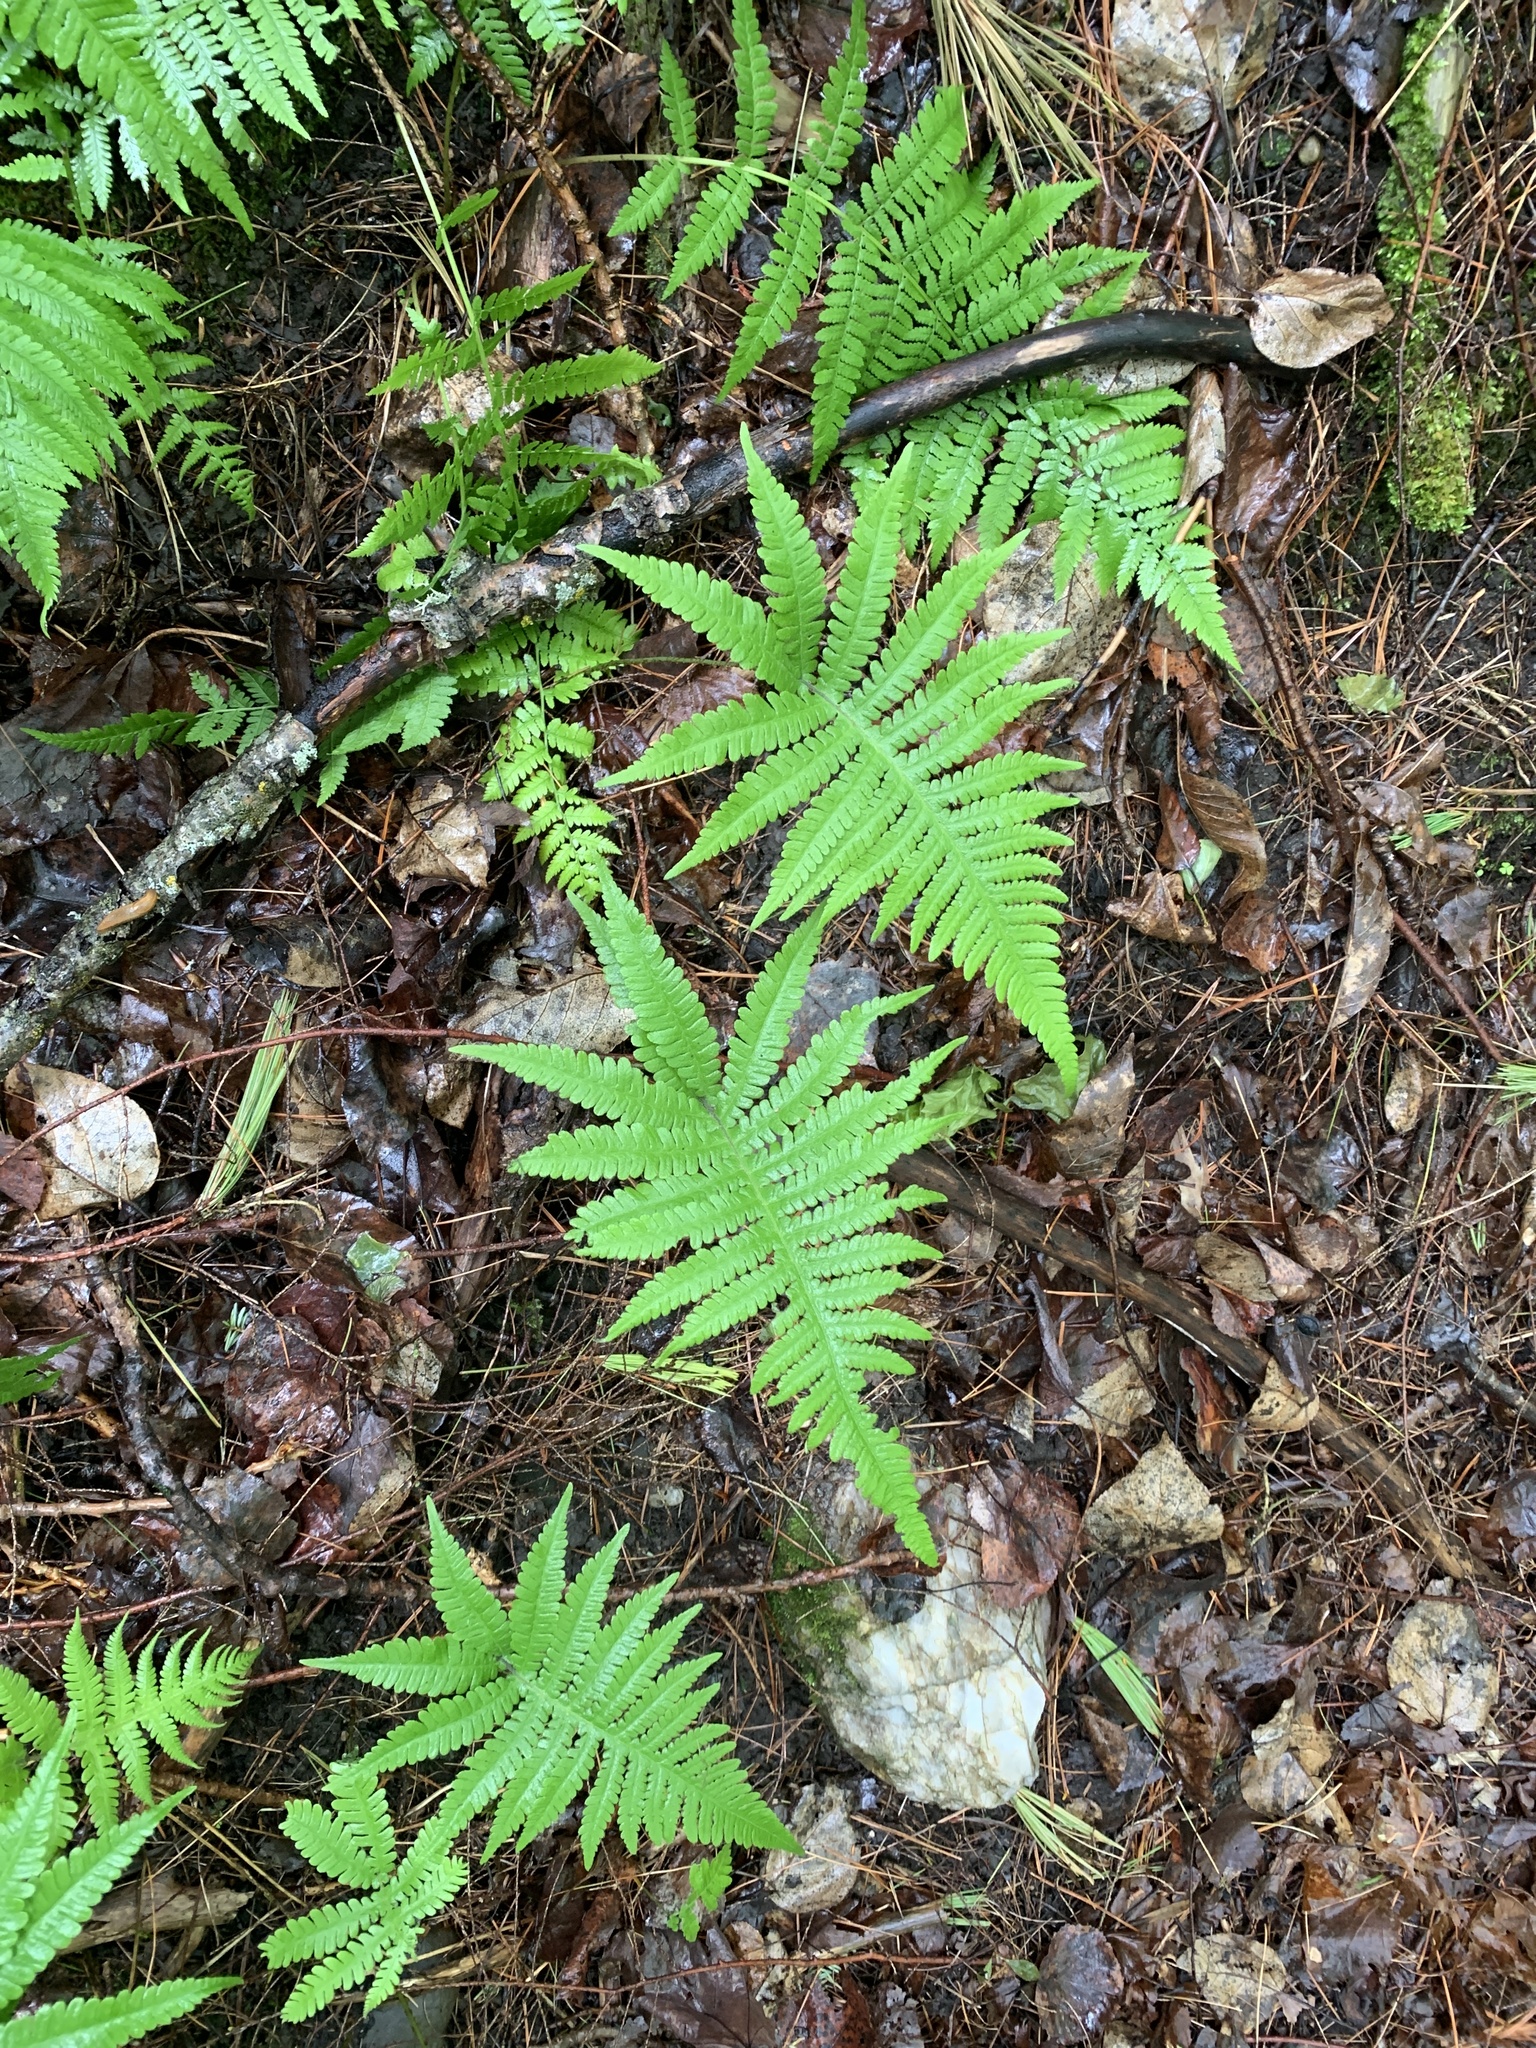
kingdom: Plantae
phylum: Tracheophyta
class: Polypodiopsida
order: Polypodiales
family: Thelypteridaceae
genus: Phegopteris
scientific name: Phegopteris connectilis
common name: Beech fern
